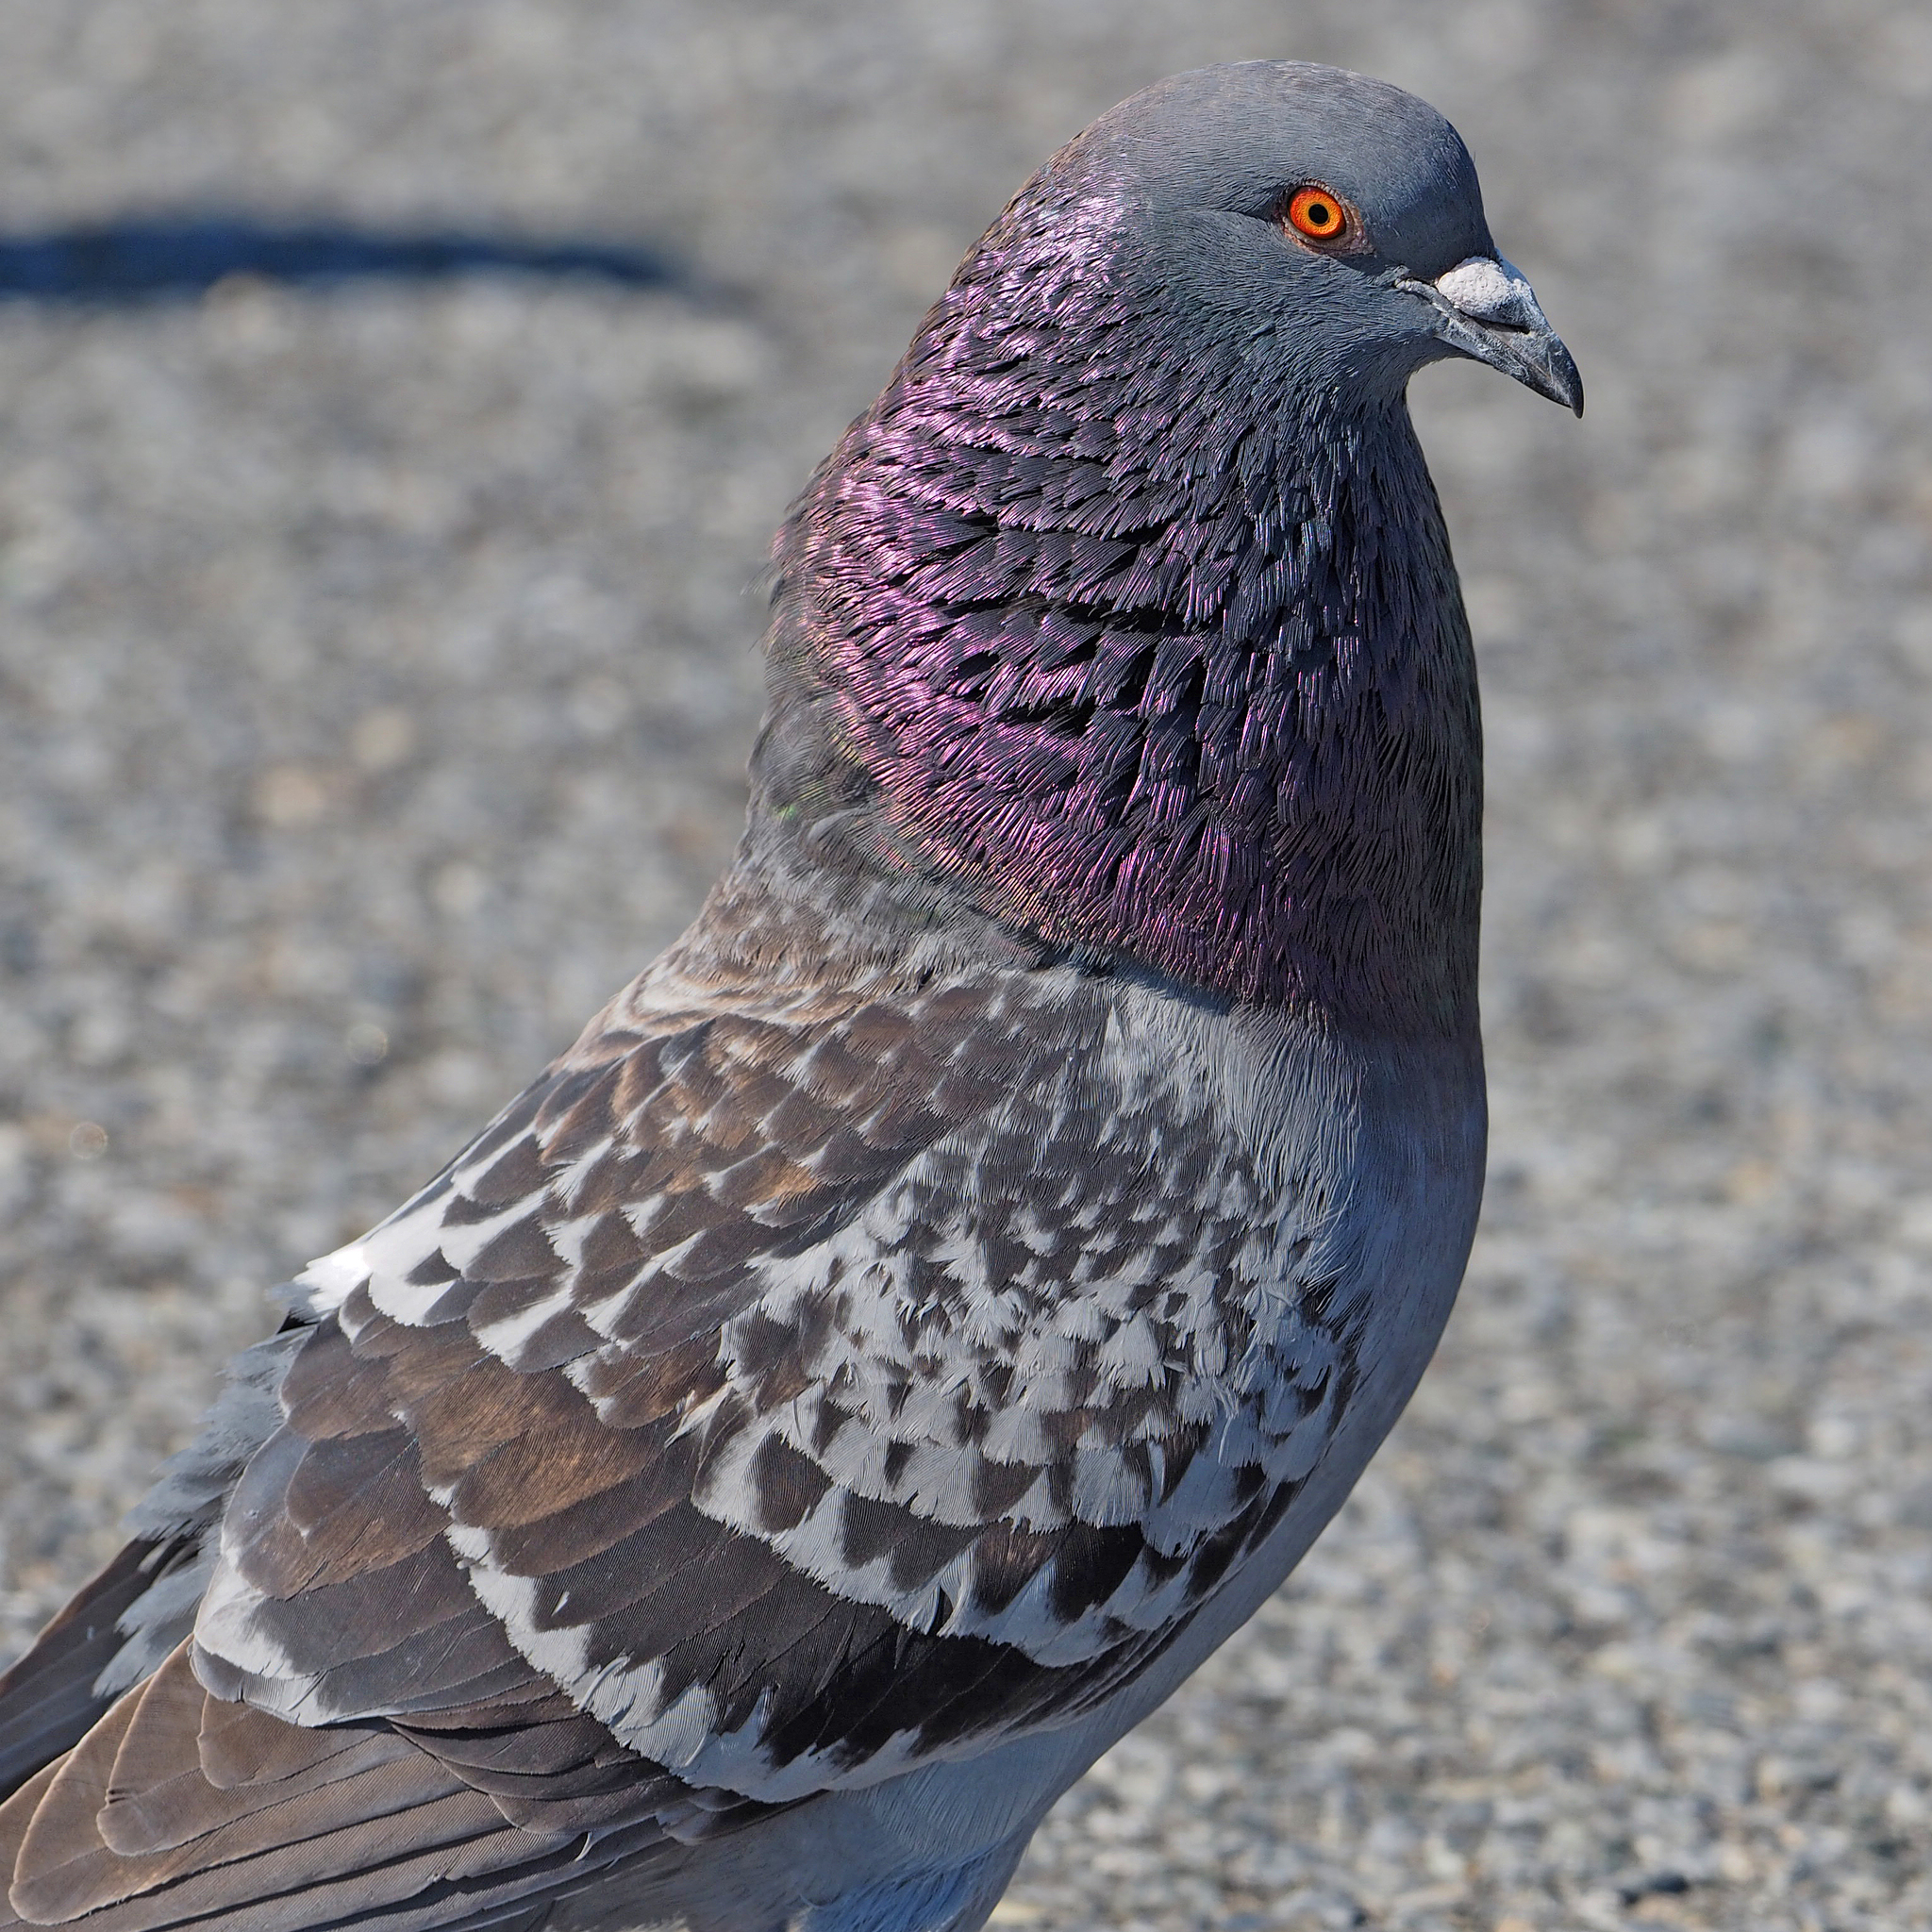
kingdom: Animalia
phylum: Chordata
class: Aves
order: Columbiformes
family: Columbidae
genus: Columba
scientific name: Columba livia
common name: Rock pigeon
